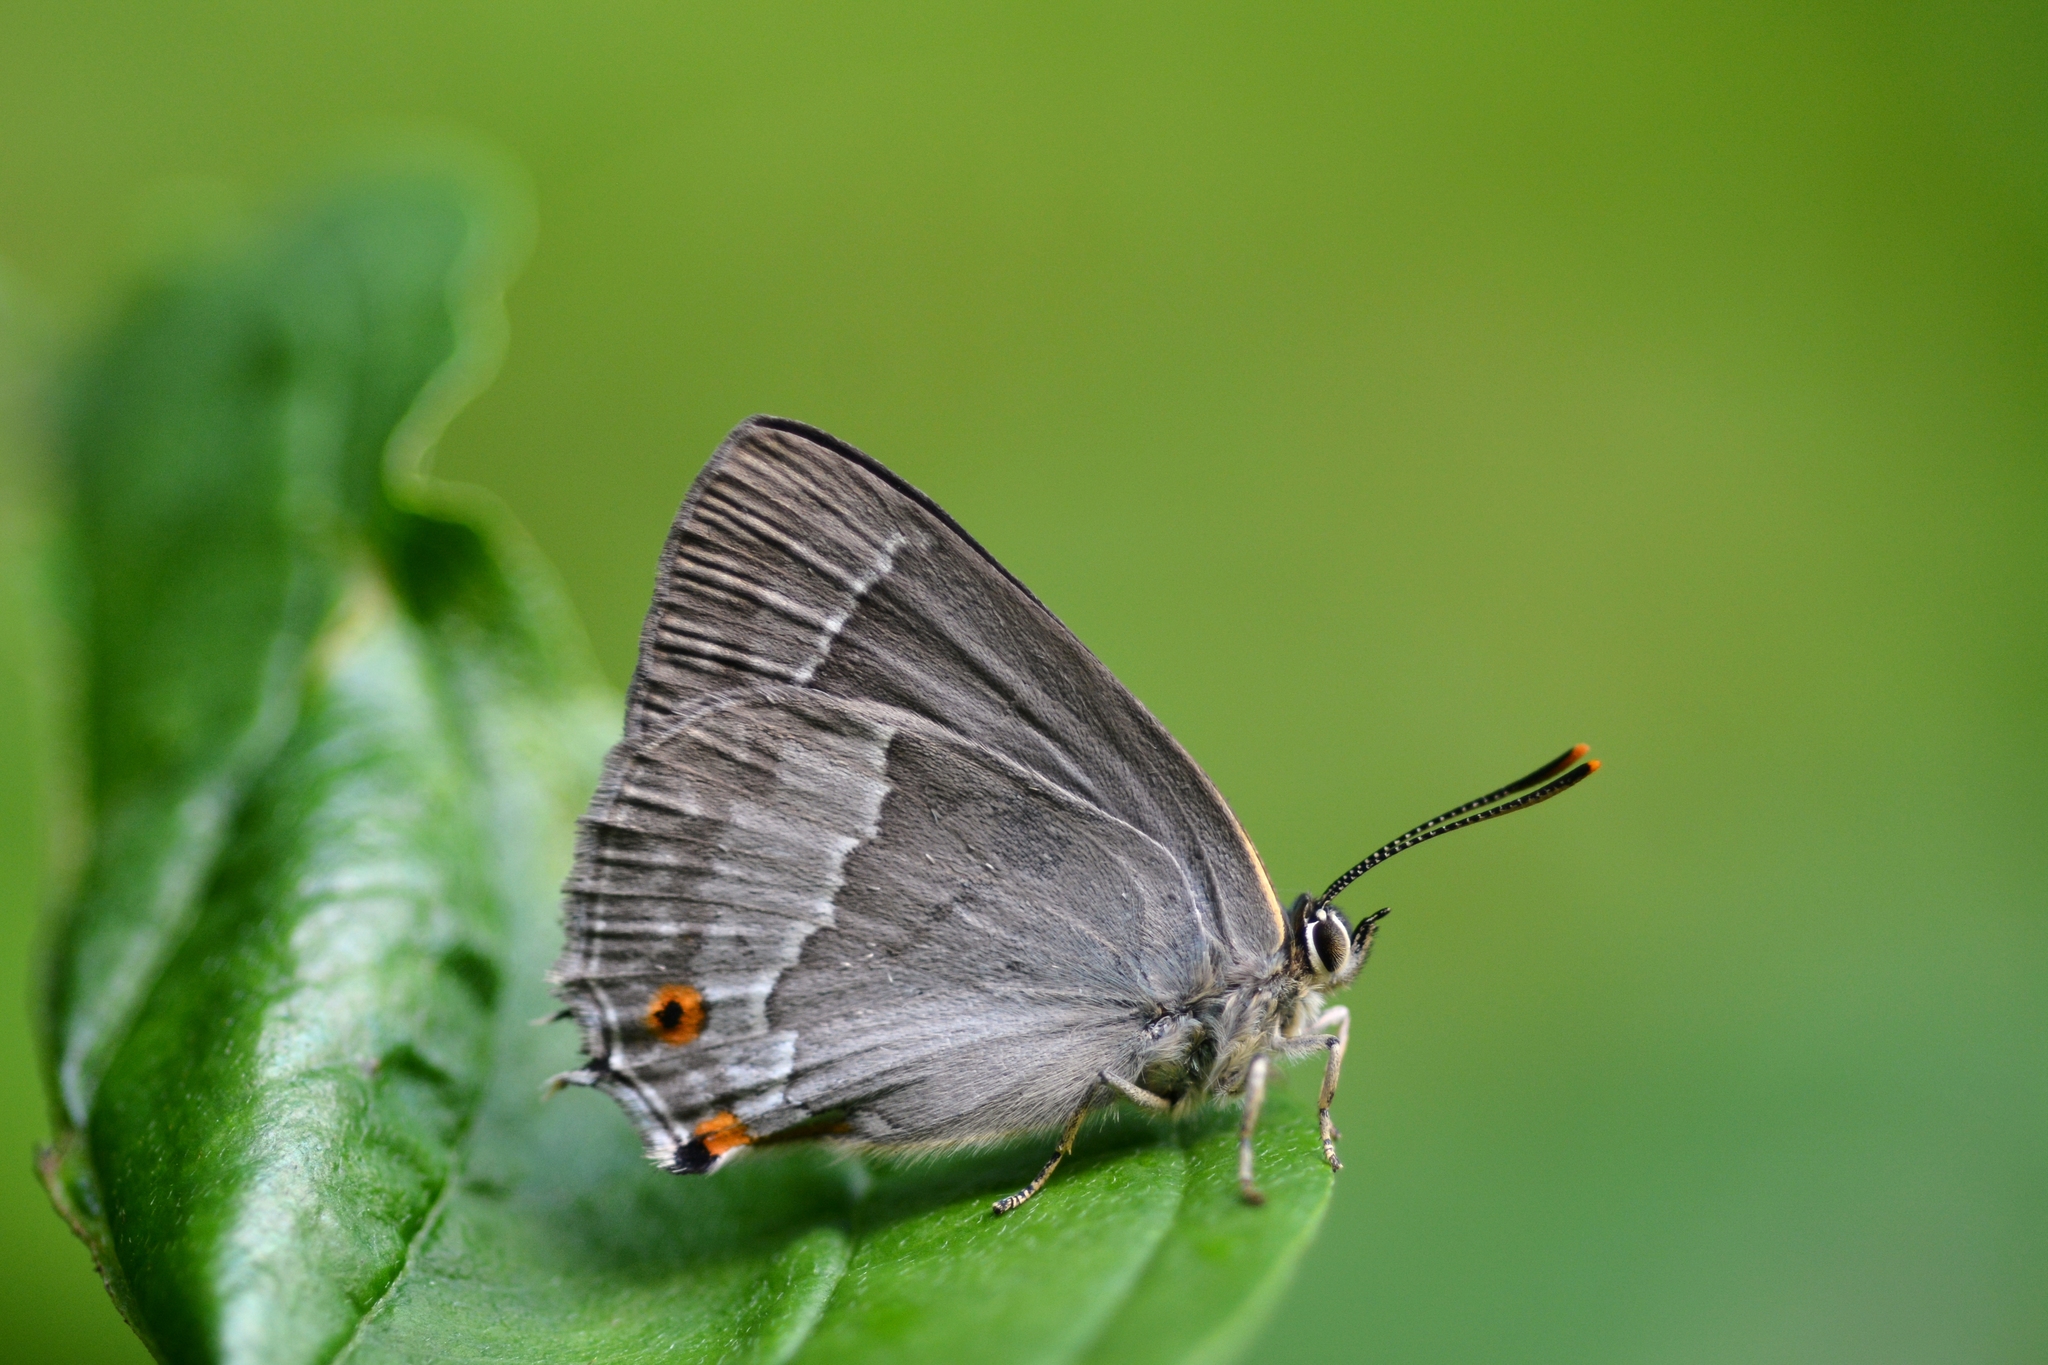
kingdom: Animalia
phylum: Arthropoda
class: Insecta
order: Lepidoptera
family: Lycaenidae
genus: Quercusia
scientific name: Quercusia quercus
